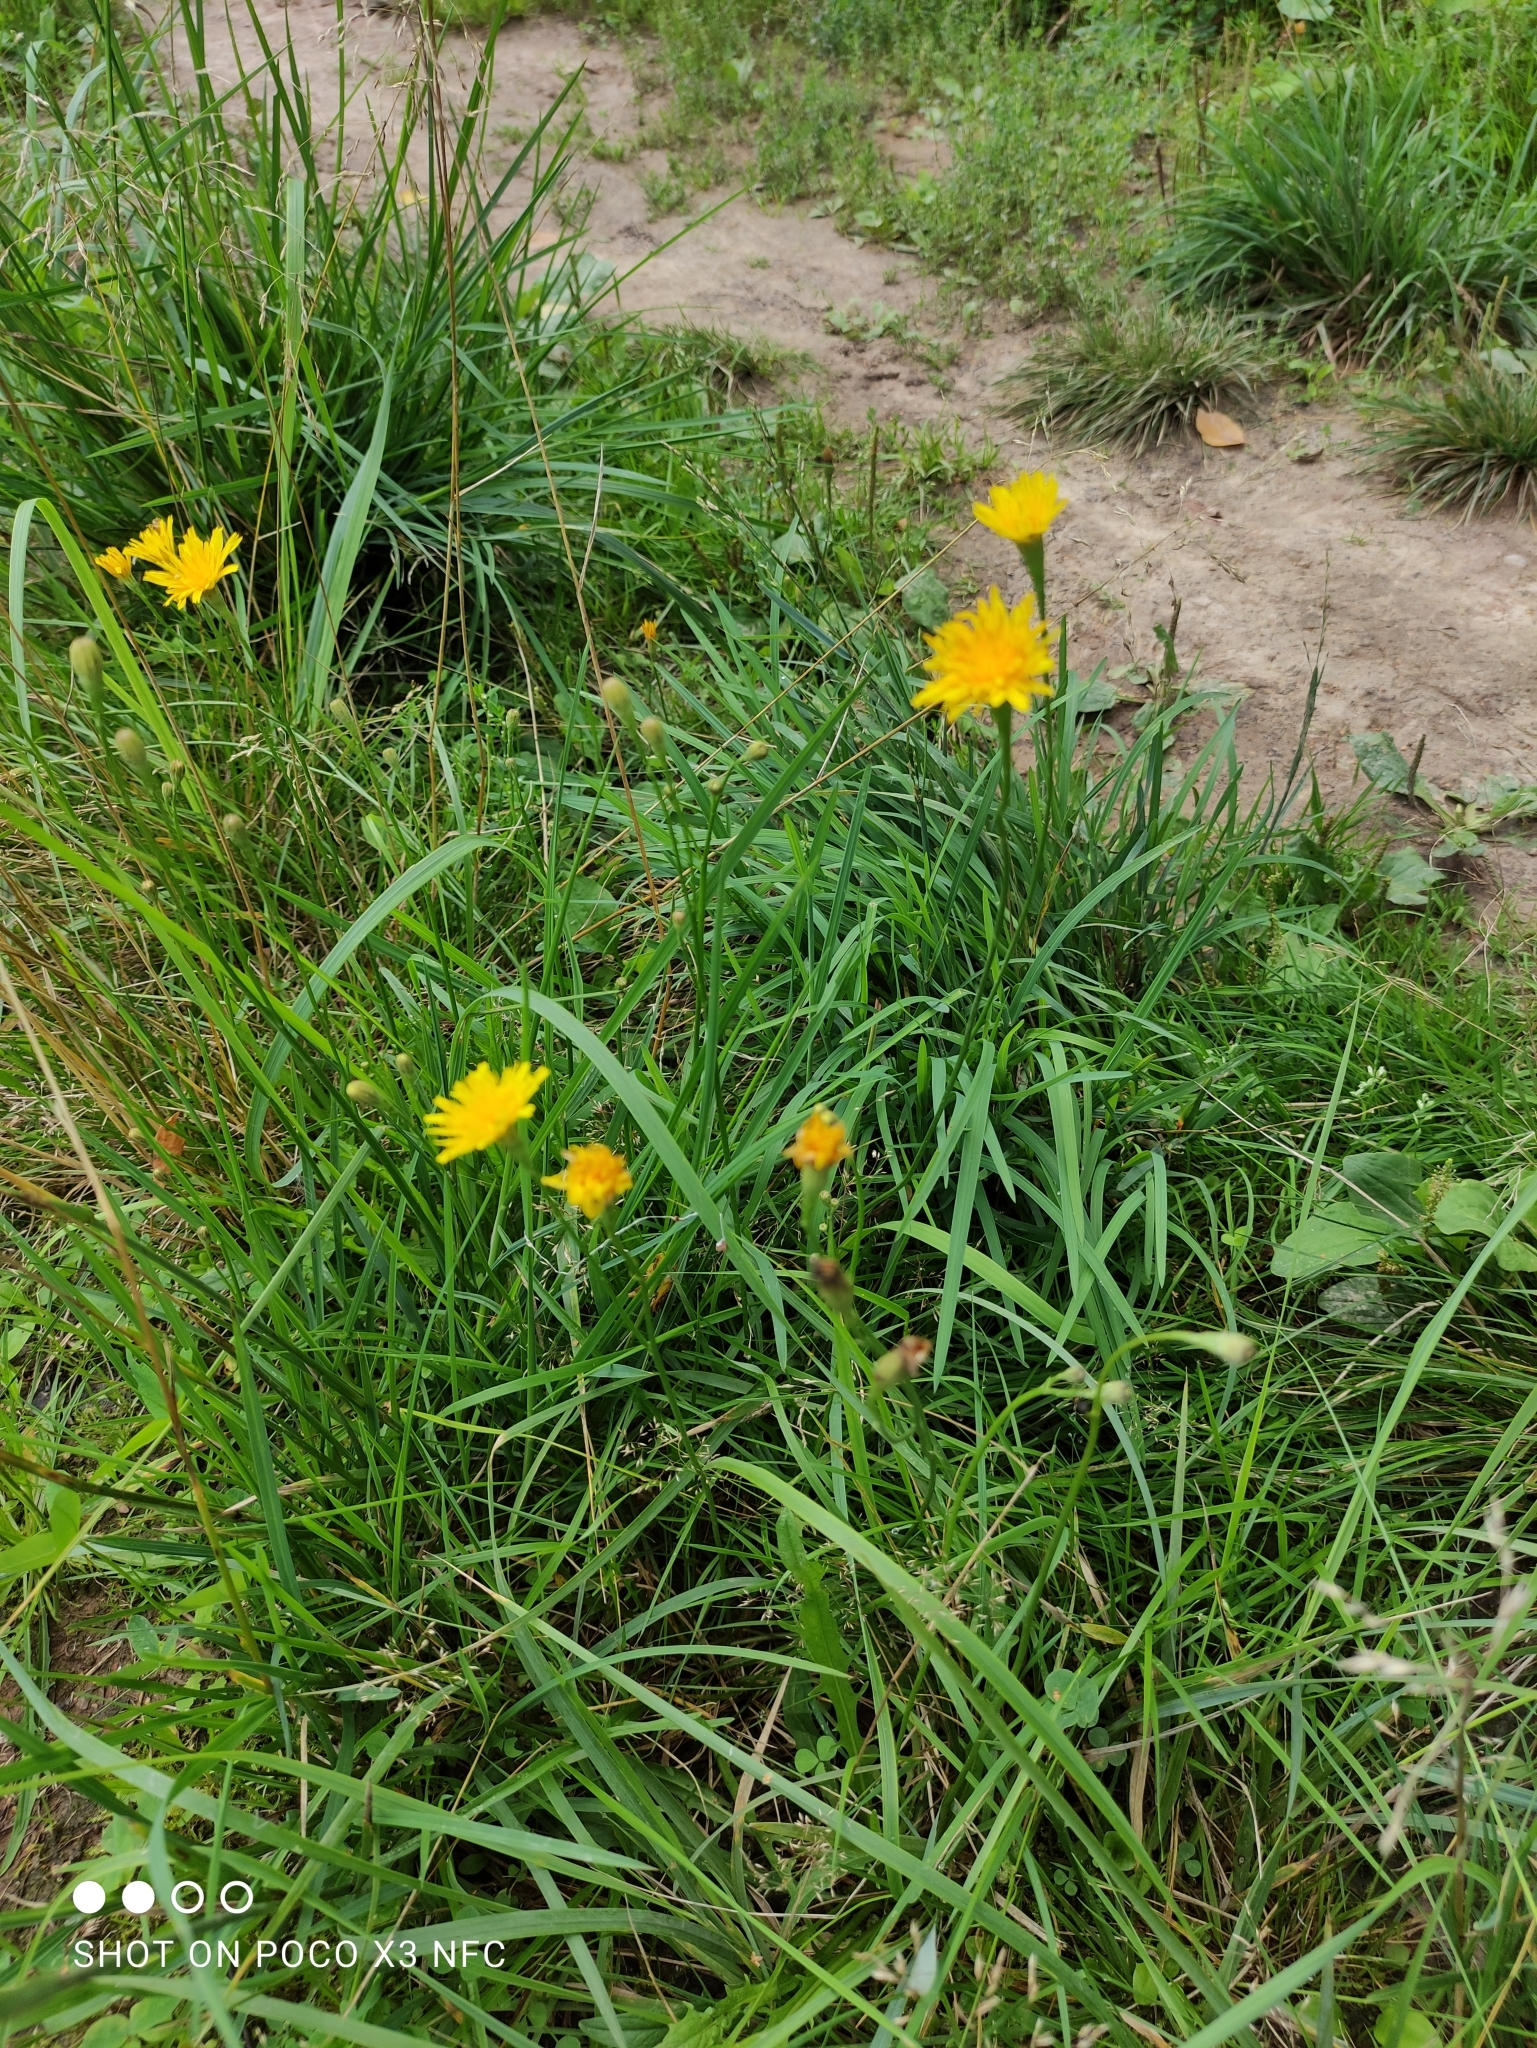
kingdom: Plantae
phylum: Tracheophyta
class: Magnoliopsida
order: Asterales
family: Asteraceae
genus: Scorzoneroides
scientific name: Scorzoneroides autumnalis
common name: Autumn hawkbit
